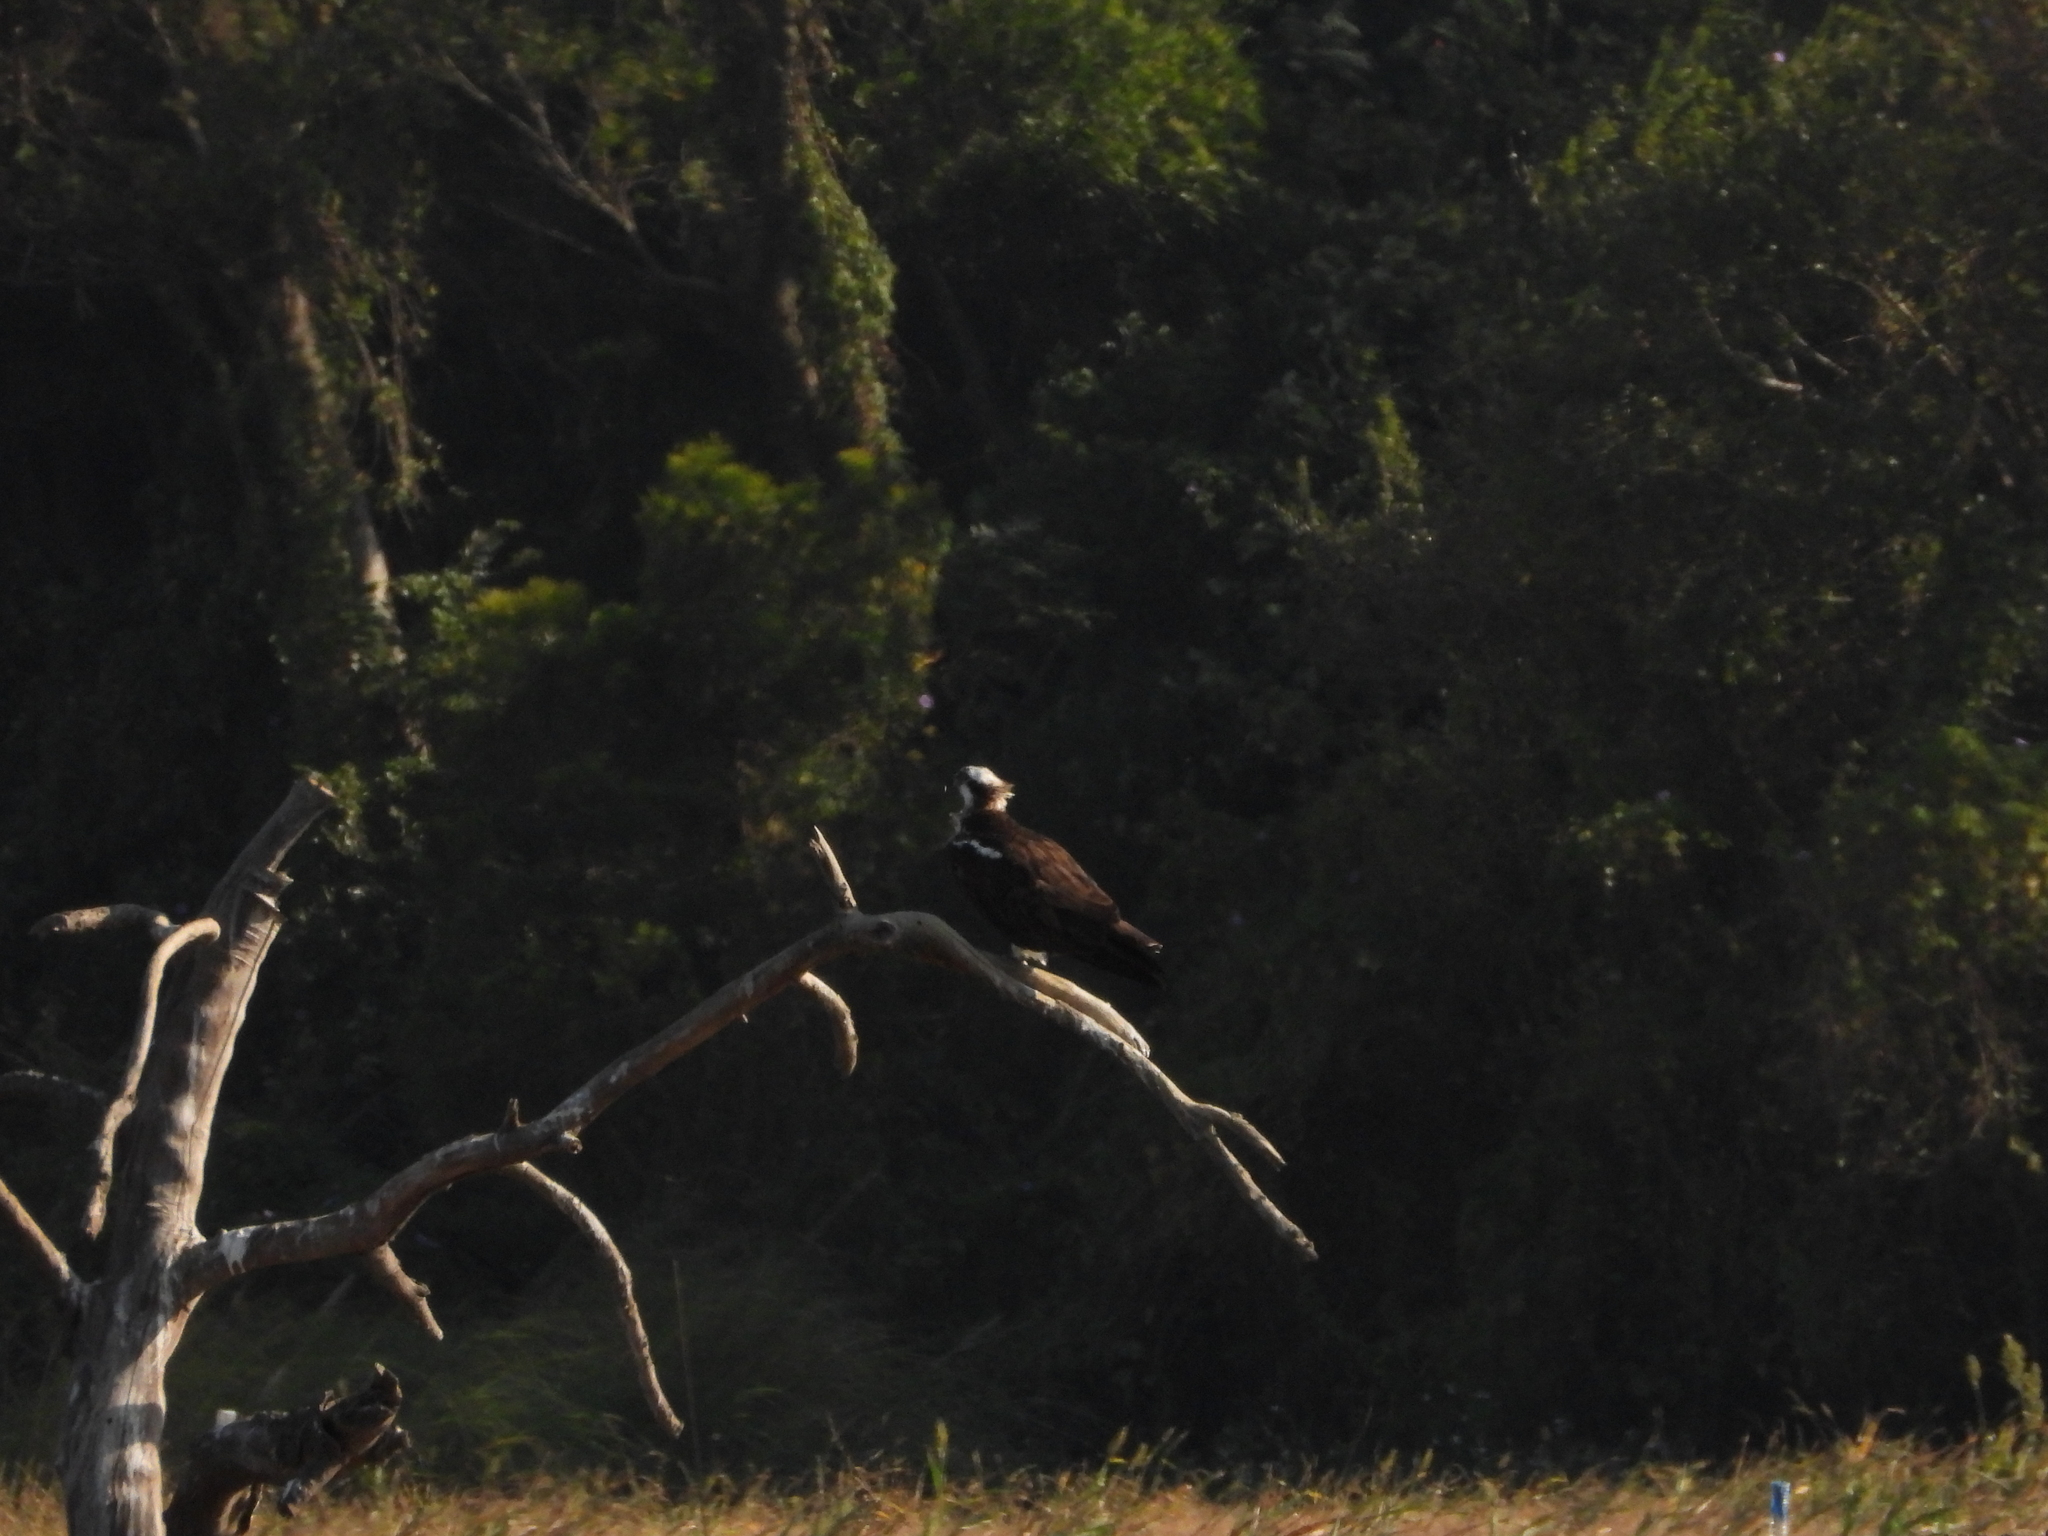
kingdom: Animalia
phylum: Chordata
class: Aves
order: Accipitriformes
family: Pandionidae
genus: Pandion
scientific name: Pandion haliaetus
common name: Osprey
